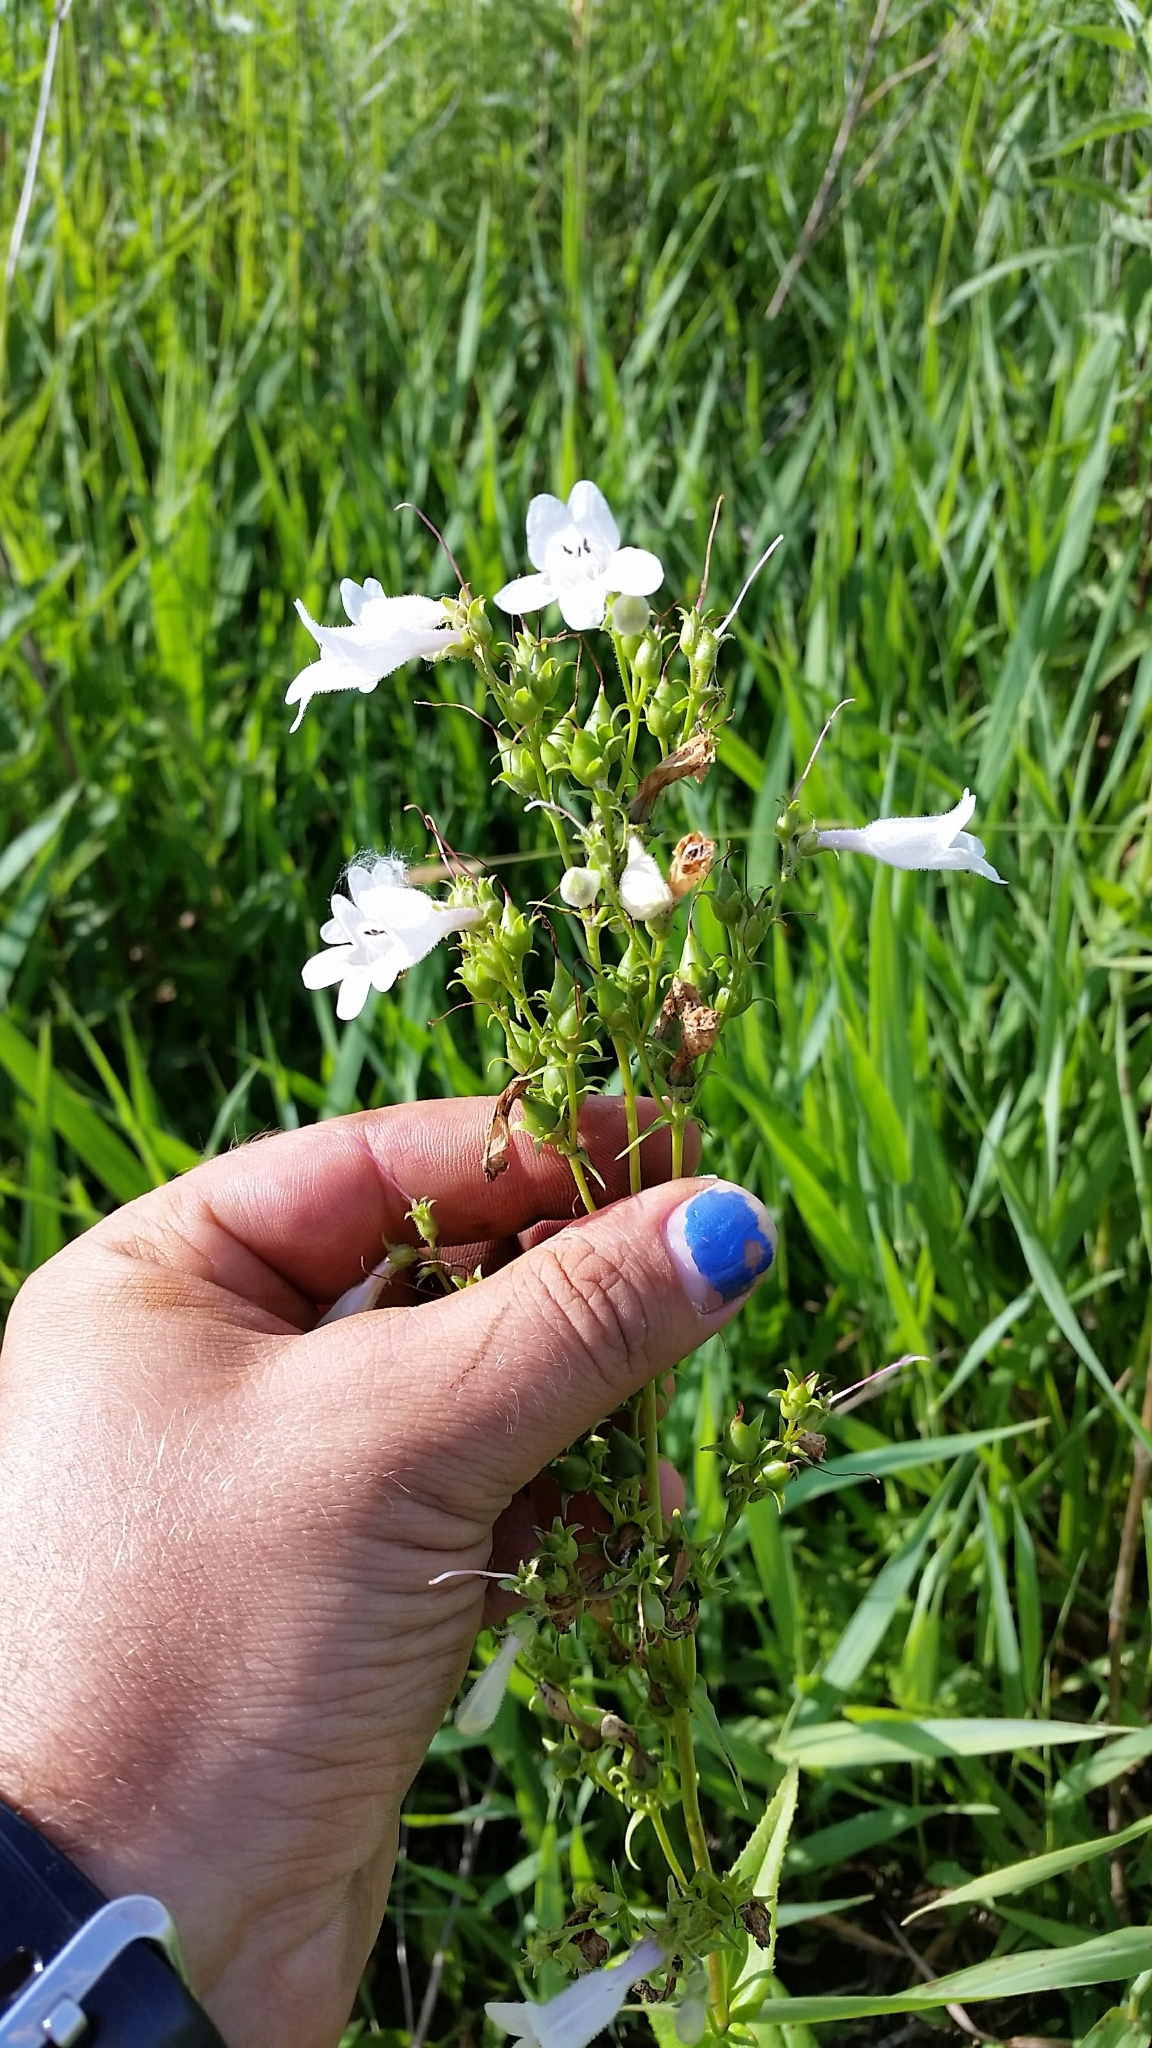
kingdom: Plantae
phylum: Tracheophyta
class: Magnoliopsida
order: Lamiales
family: Plantaginaceae
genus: Penstemon
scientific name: Penstemon digitalis
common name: Foxglove beardtongue
